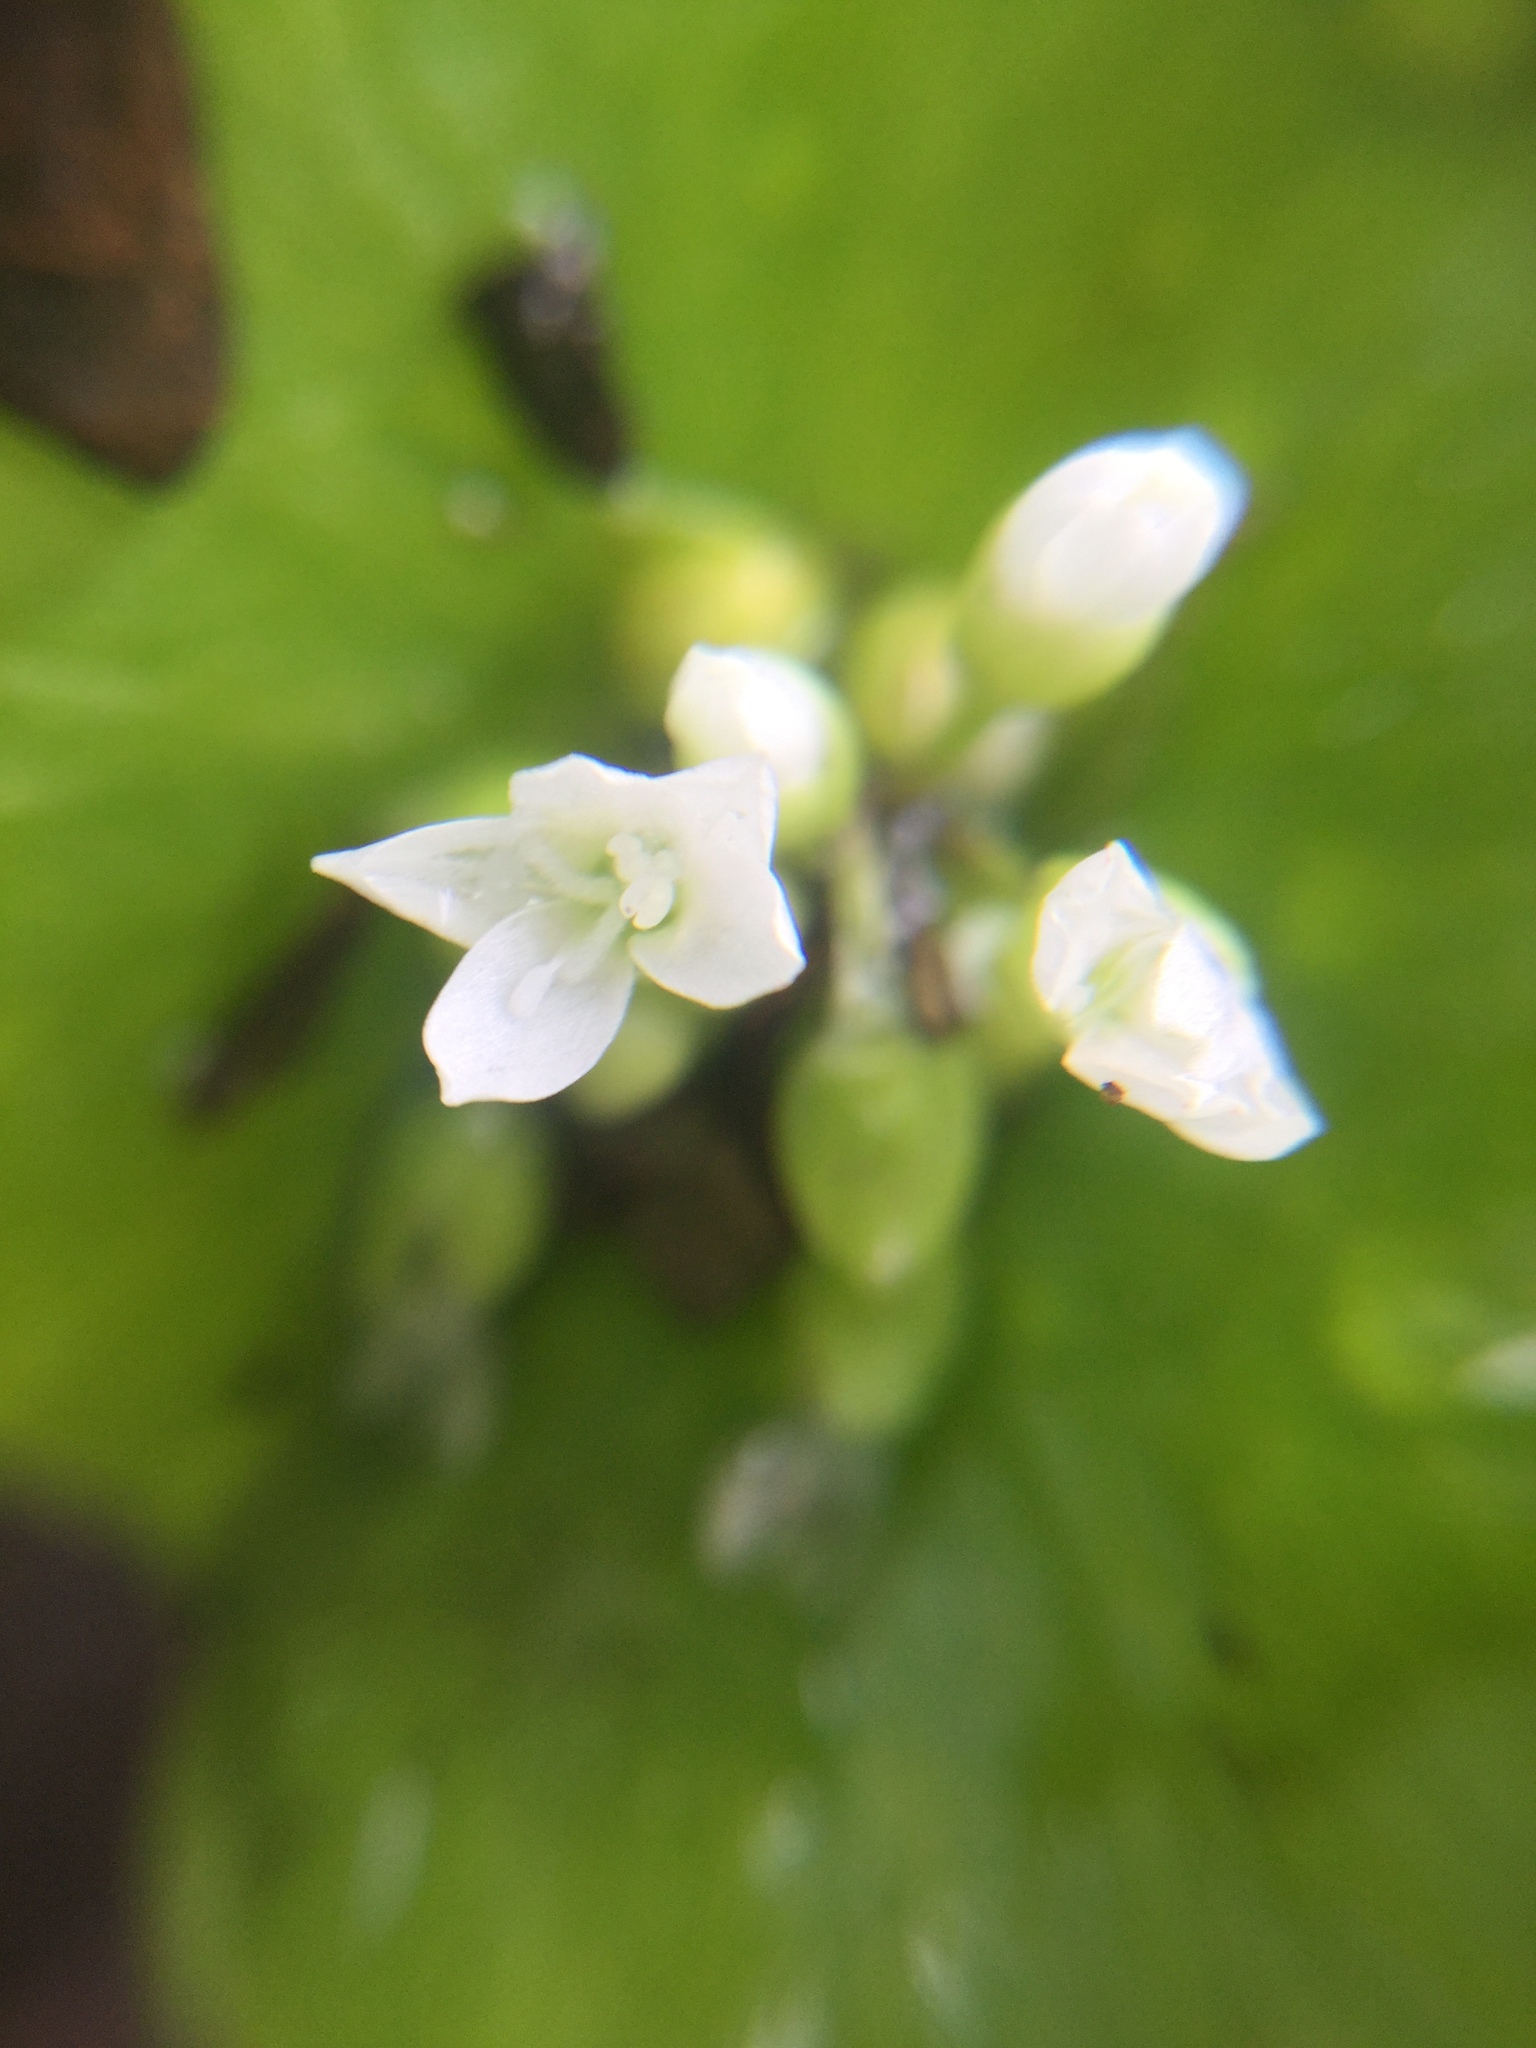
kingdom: Plantae
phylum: Tracheophyta
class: Magnoliopsida
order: Caryophyllales
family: Montiaceae
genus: Claytonia
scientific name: Claytonia perfoliata
